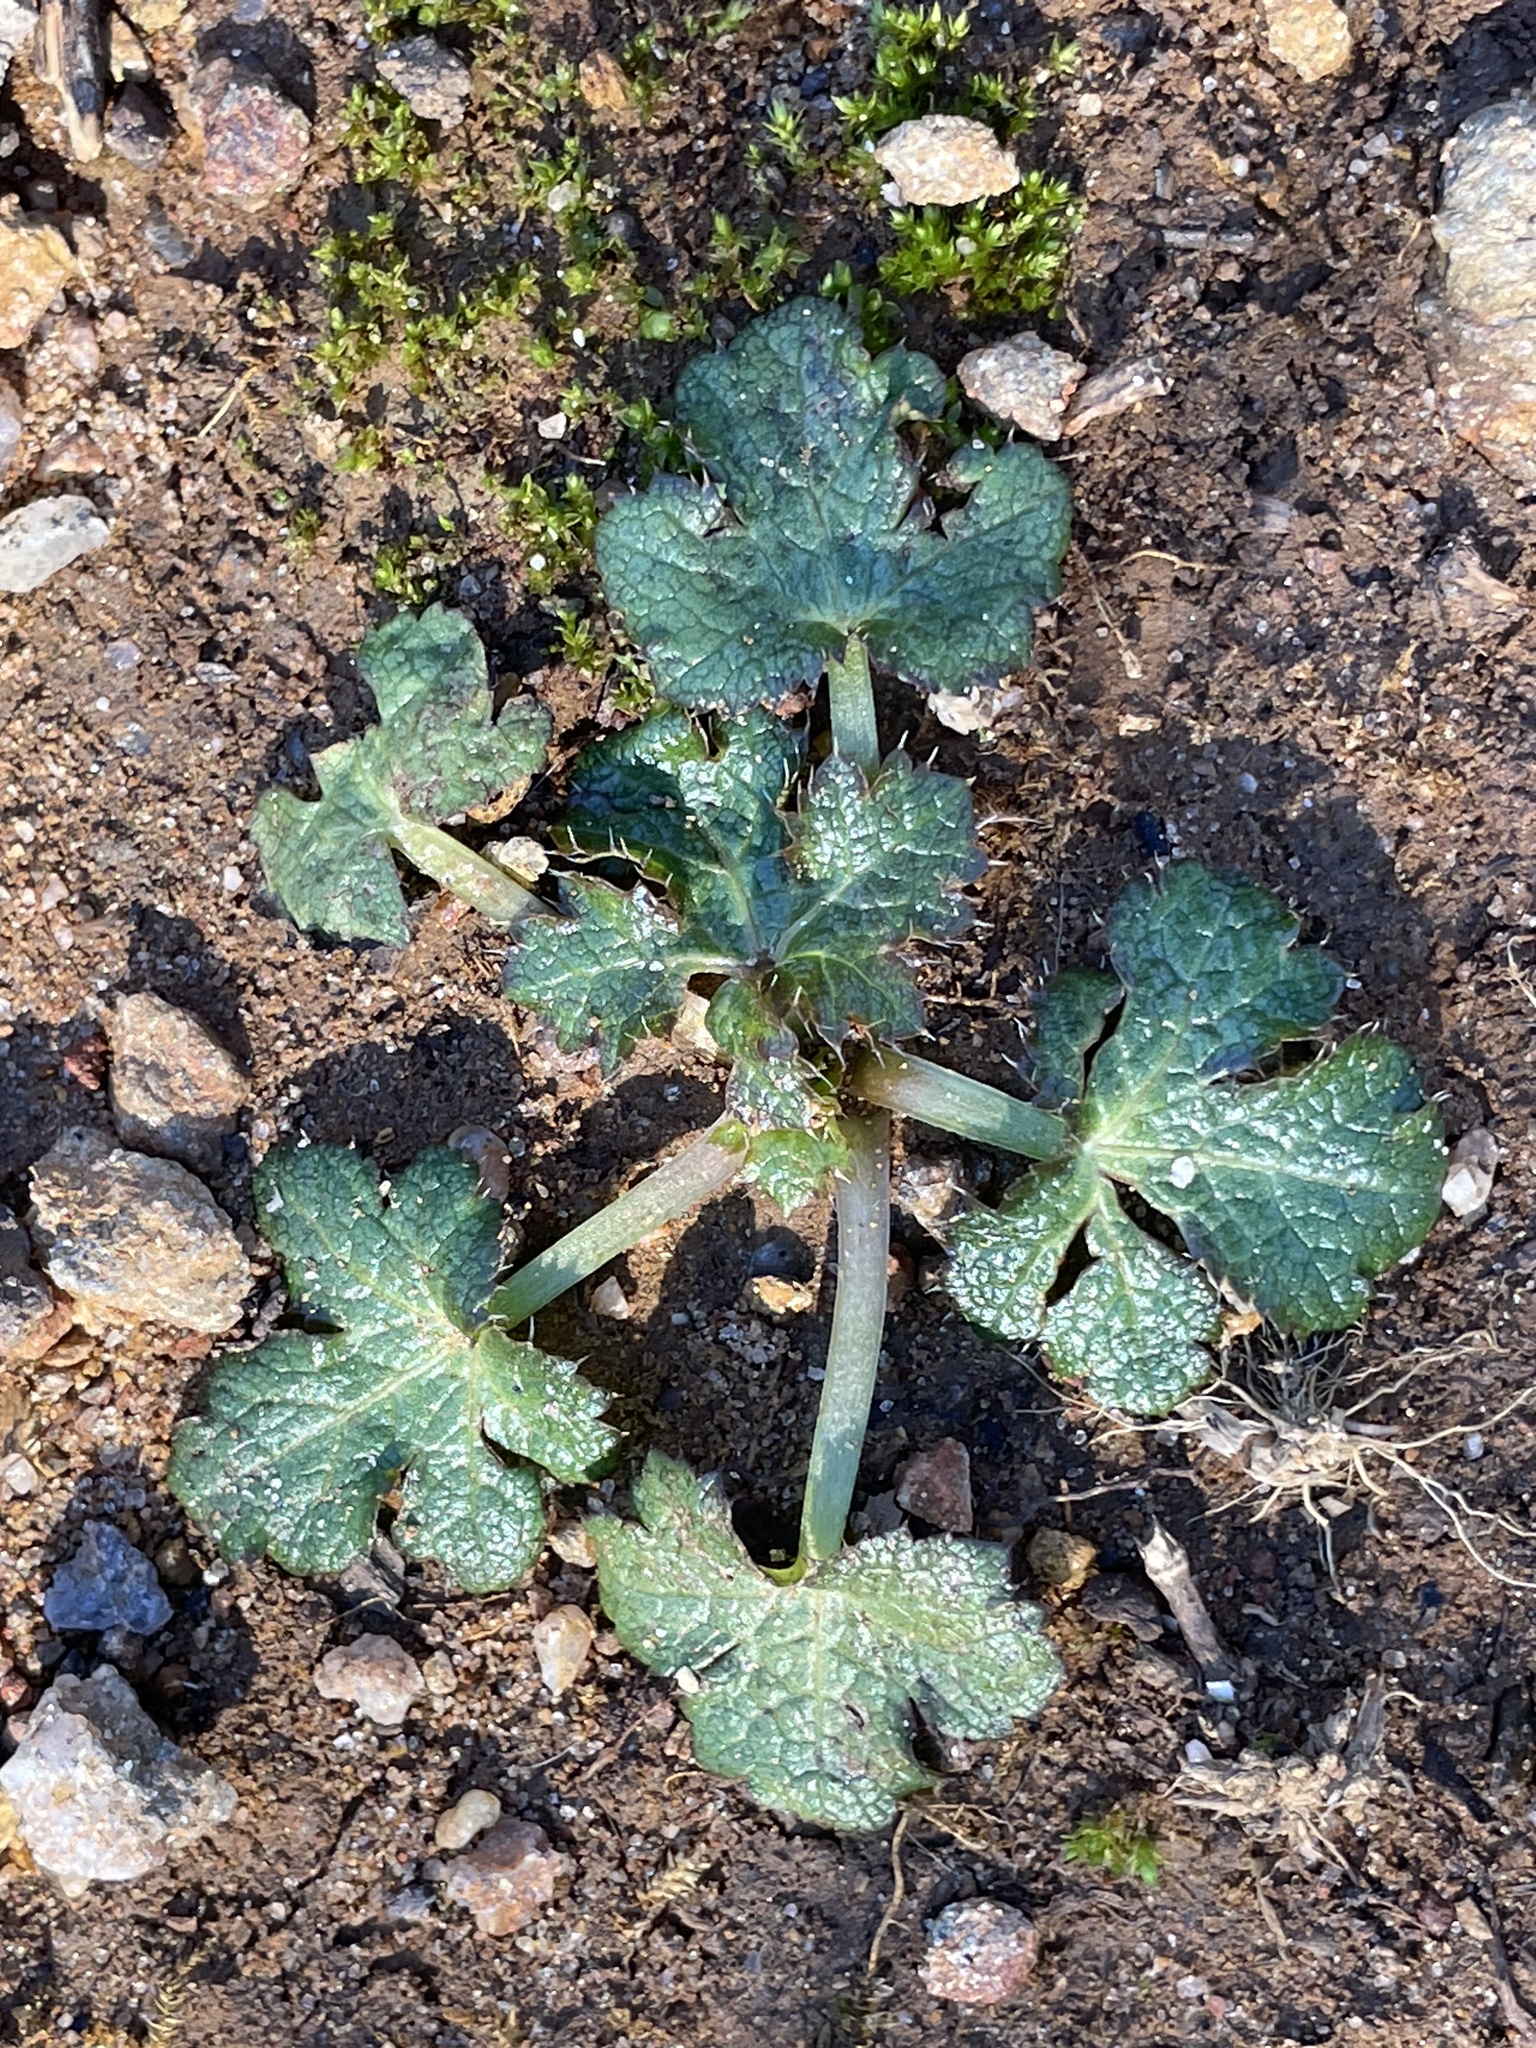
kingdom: Plantae
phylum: Tracheophyta
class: Magnoliopsida
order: Apiales
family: Apiaceae
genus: Sanicula
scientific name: Sanicula crassicaulis
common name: Western snakeroot
